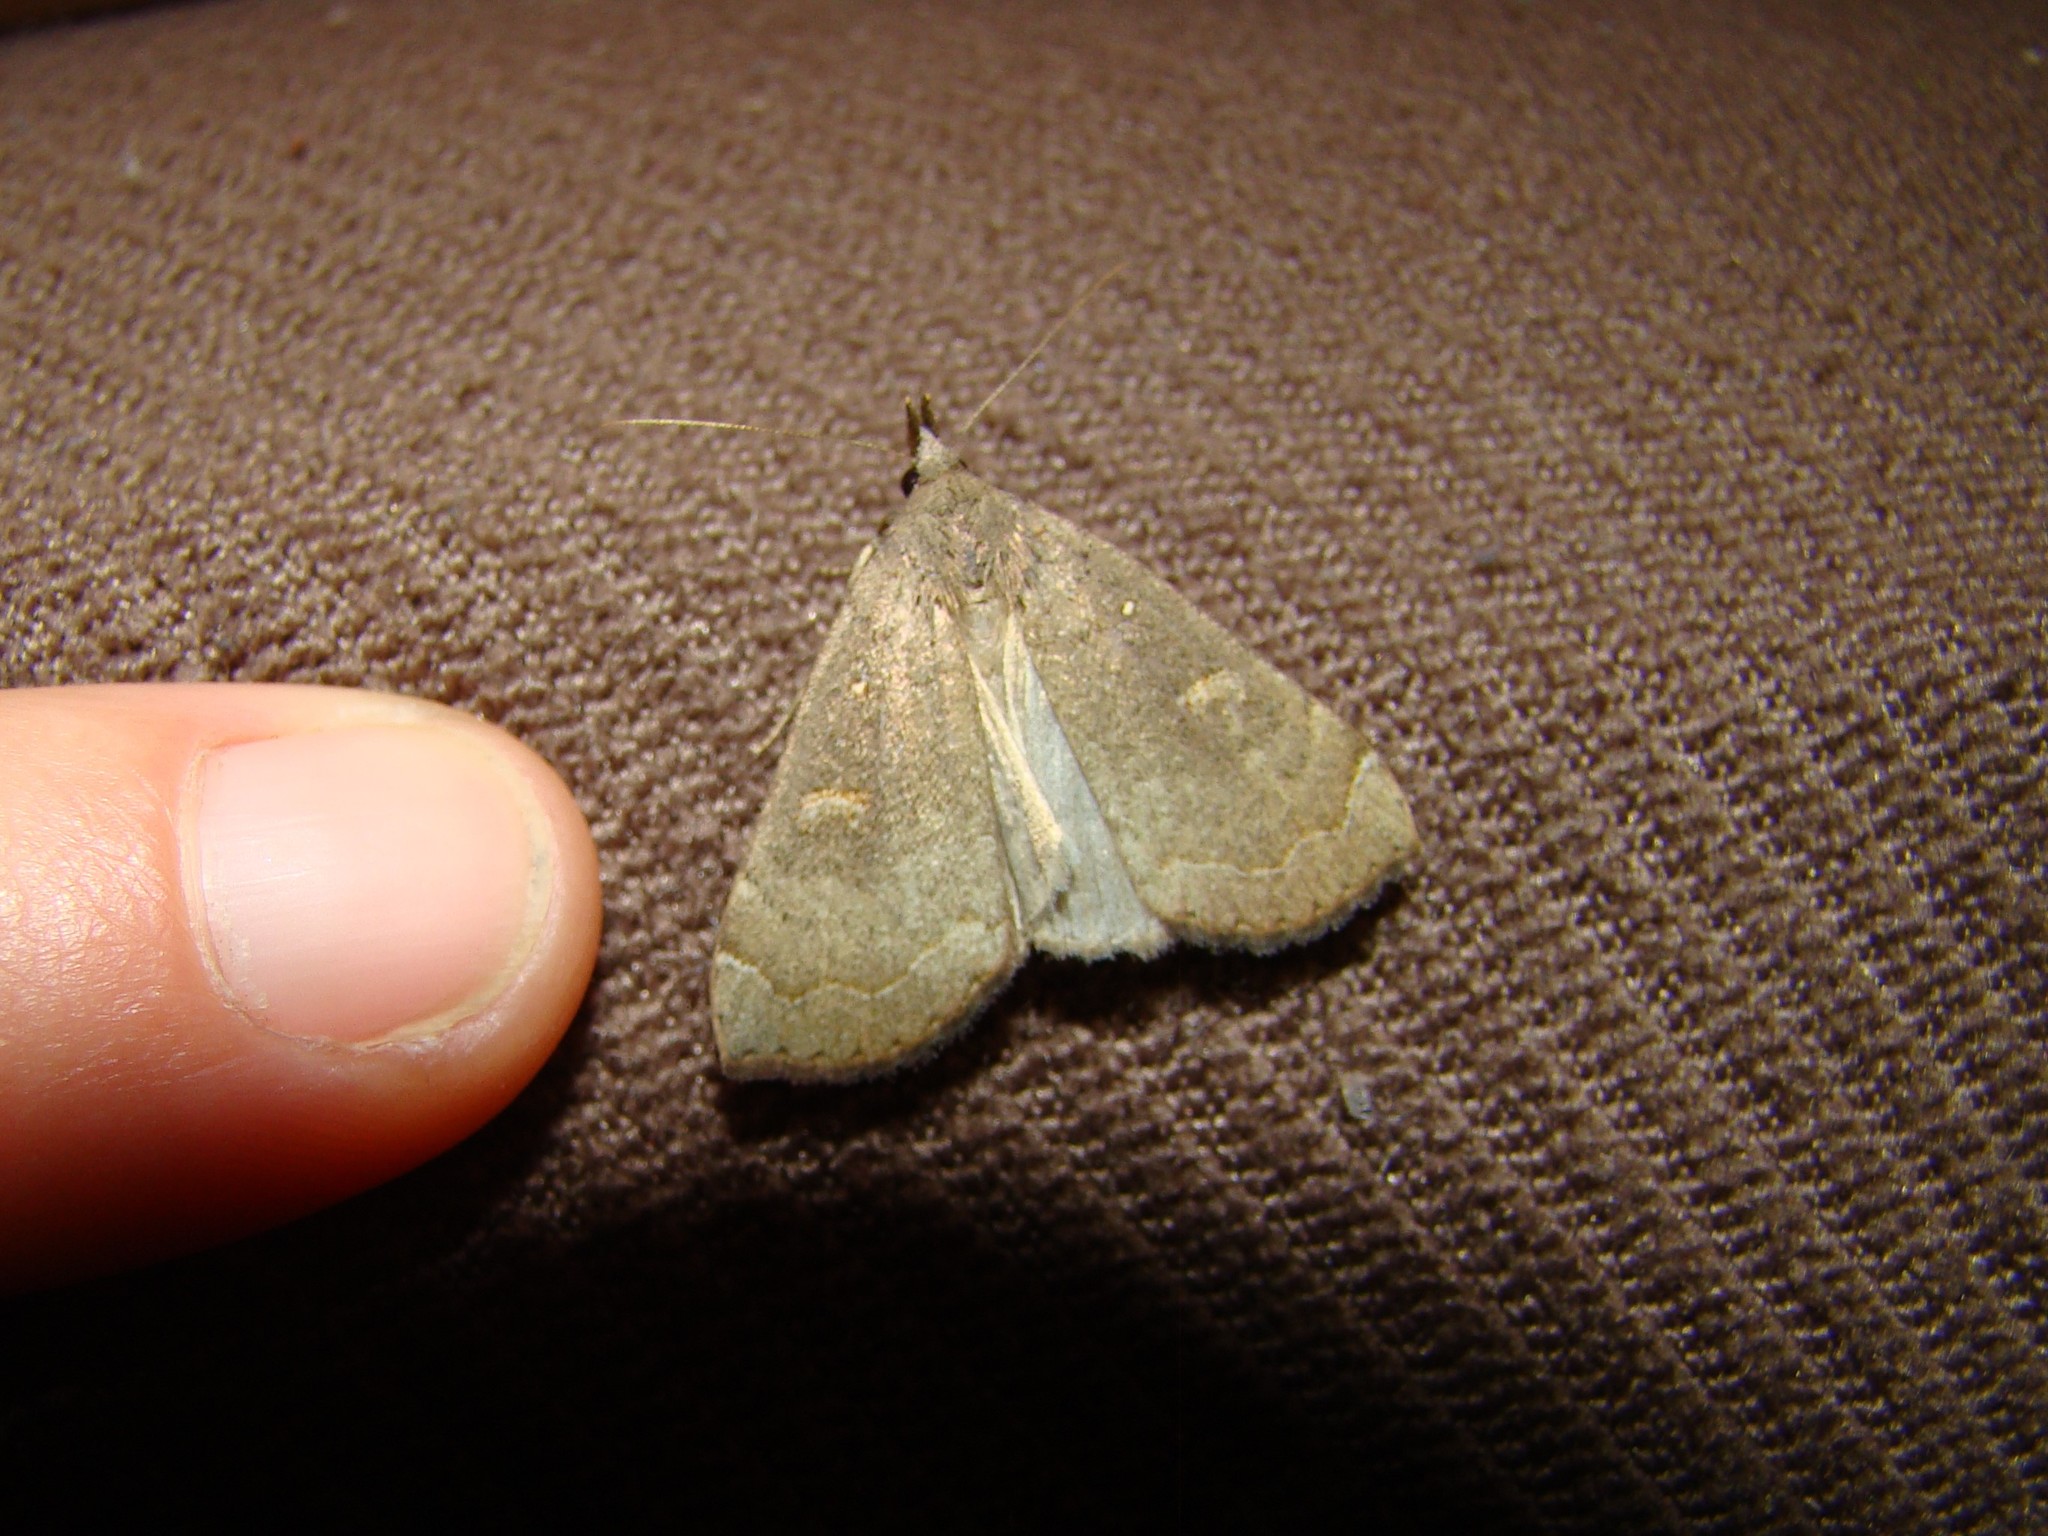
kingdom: Animalia
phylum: Arthropoda
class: Insecta
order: Lepidoptera
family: Erebidae
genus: Rhapsa
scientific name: Rhapsa scotosialis
